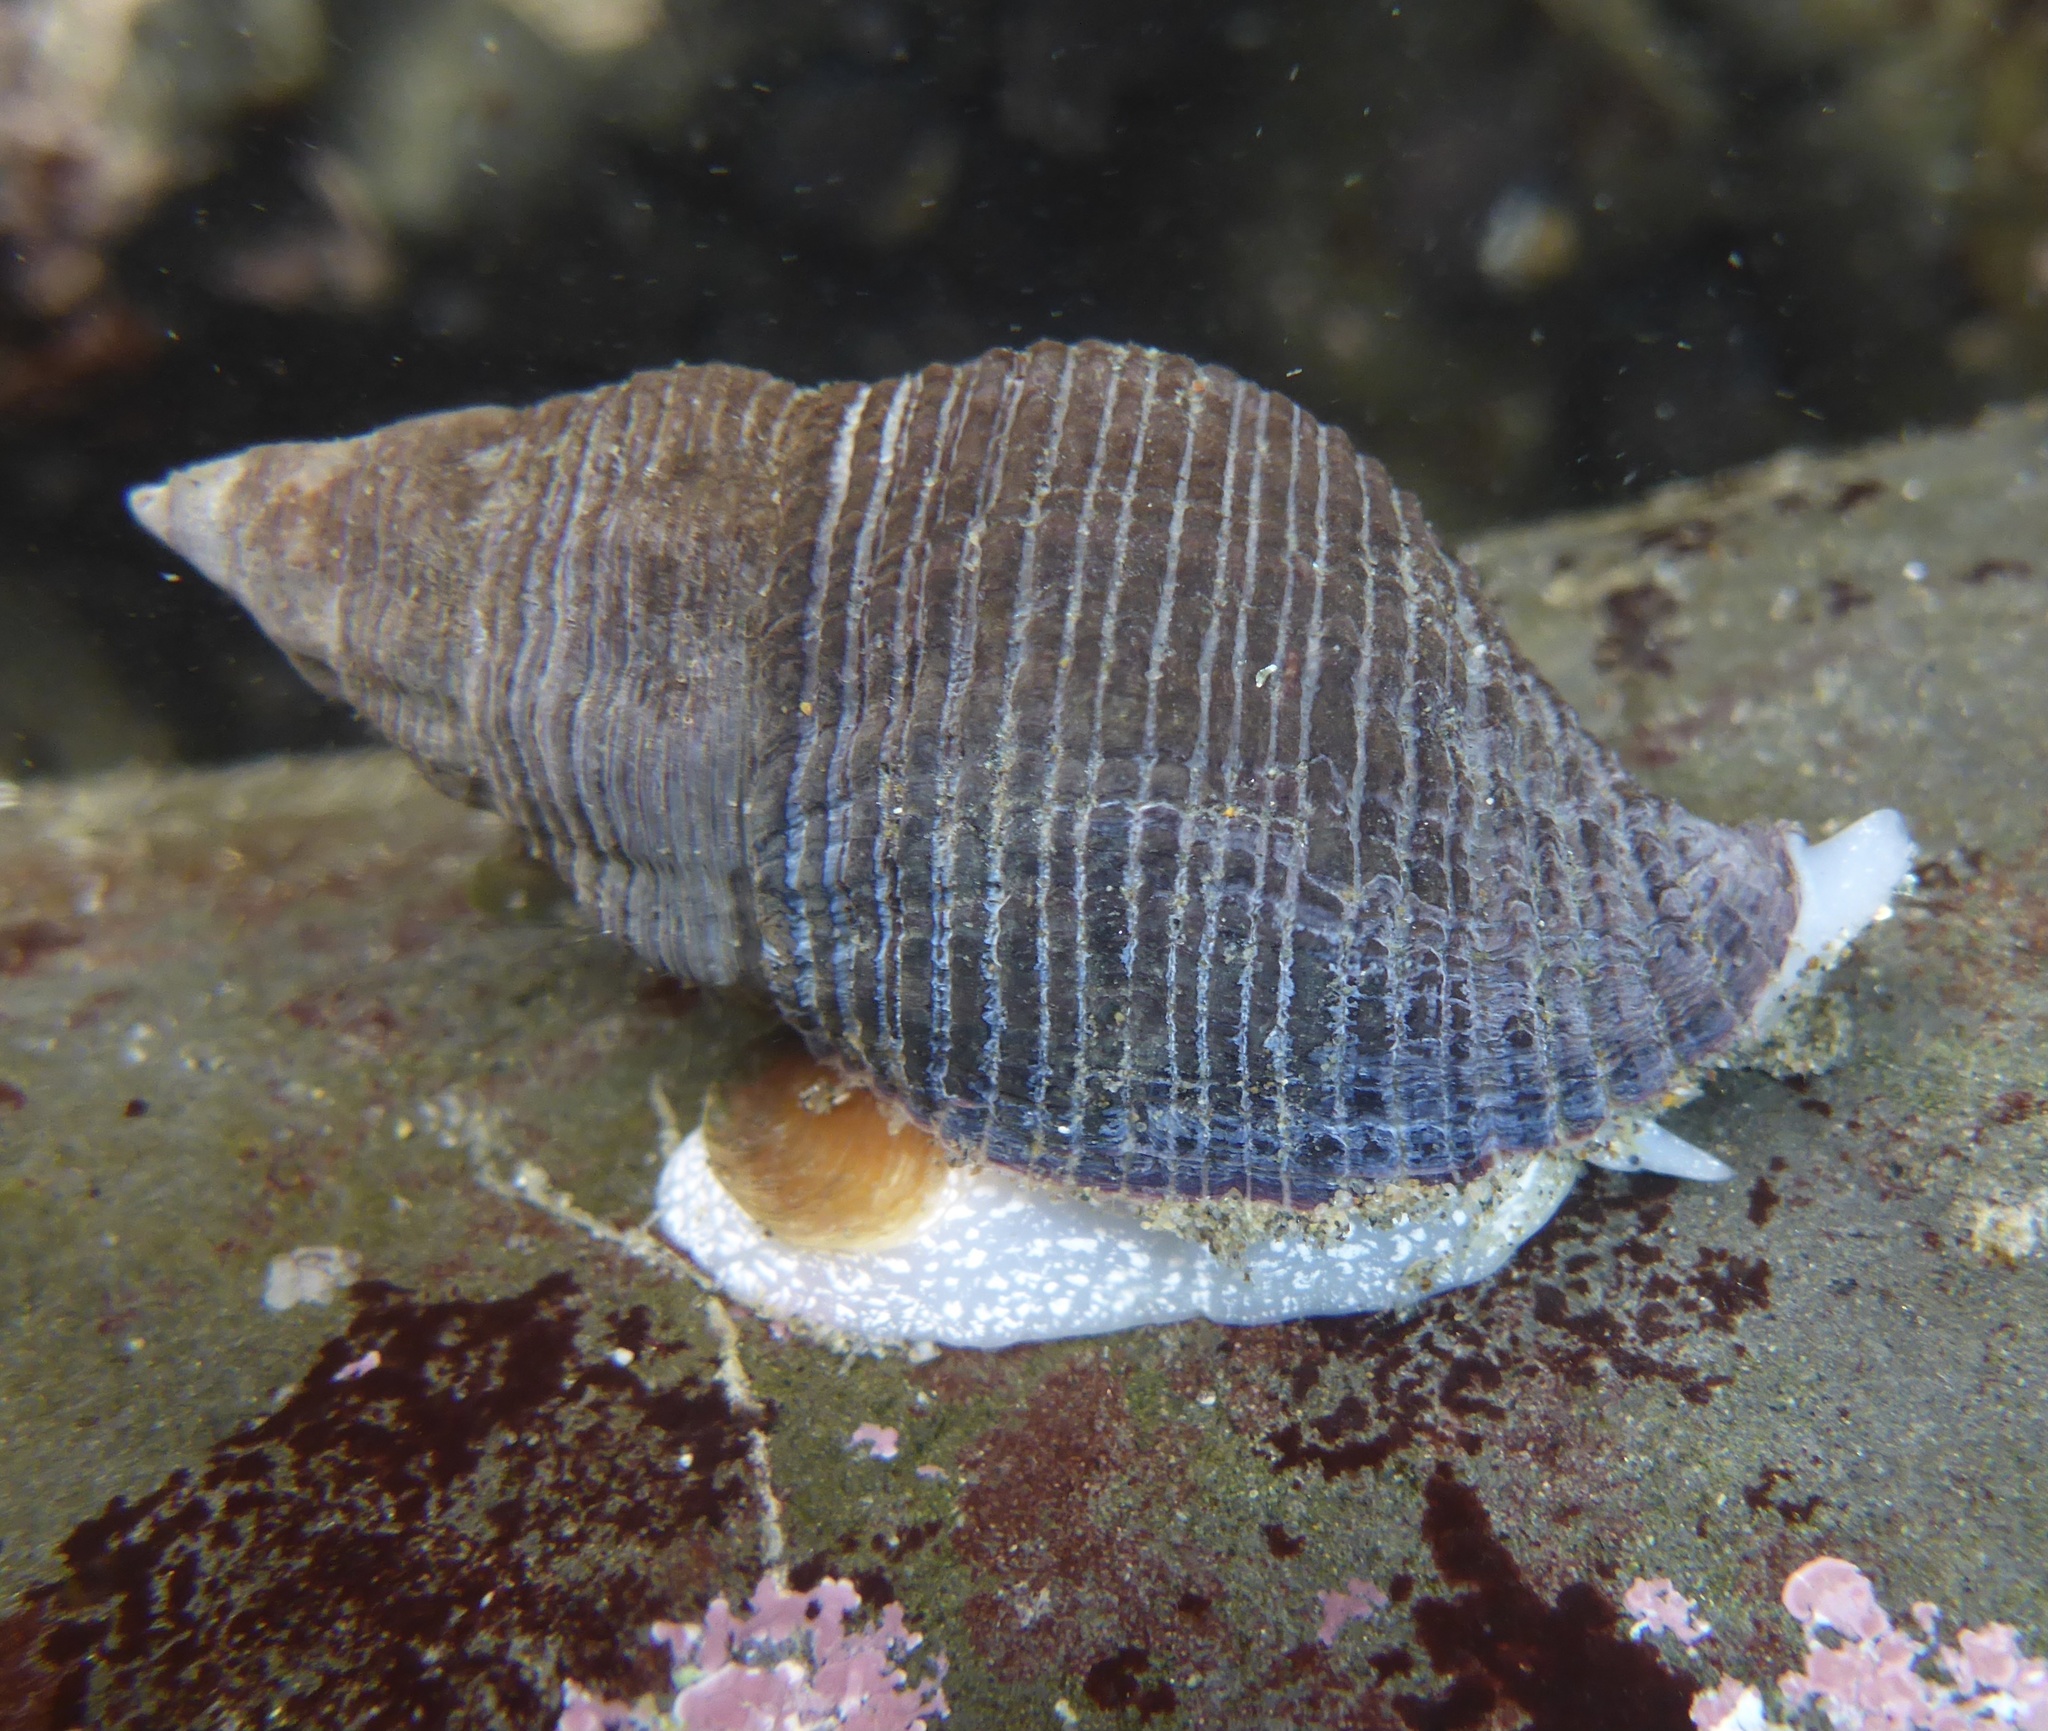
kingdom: Animalia
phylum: Mollusca
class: Gastropoda
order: Neogastropoda
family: Tudiclidae
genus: Lirabuccinum
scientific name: Lirabuccinum dirum
